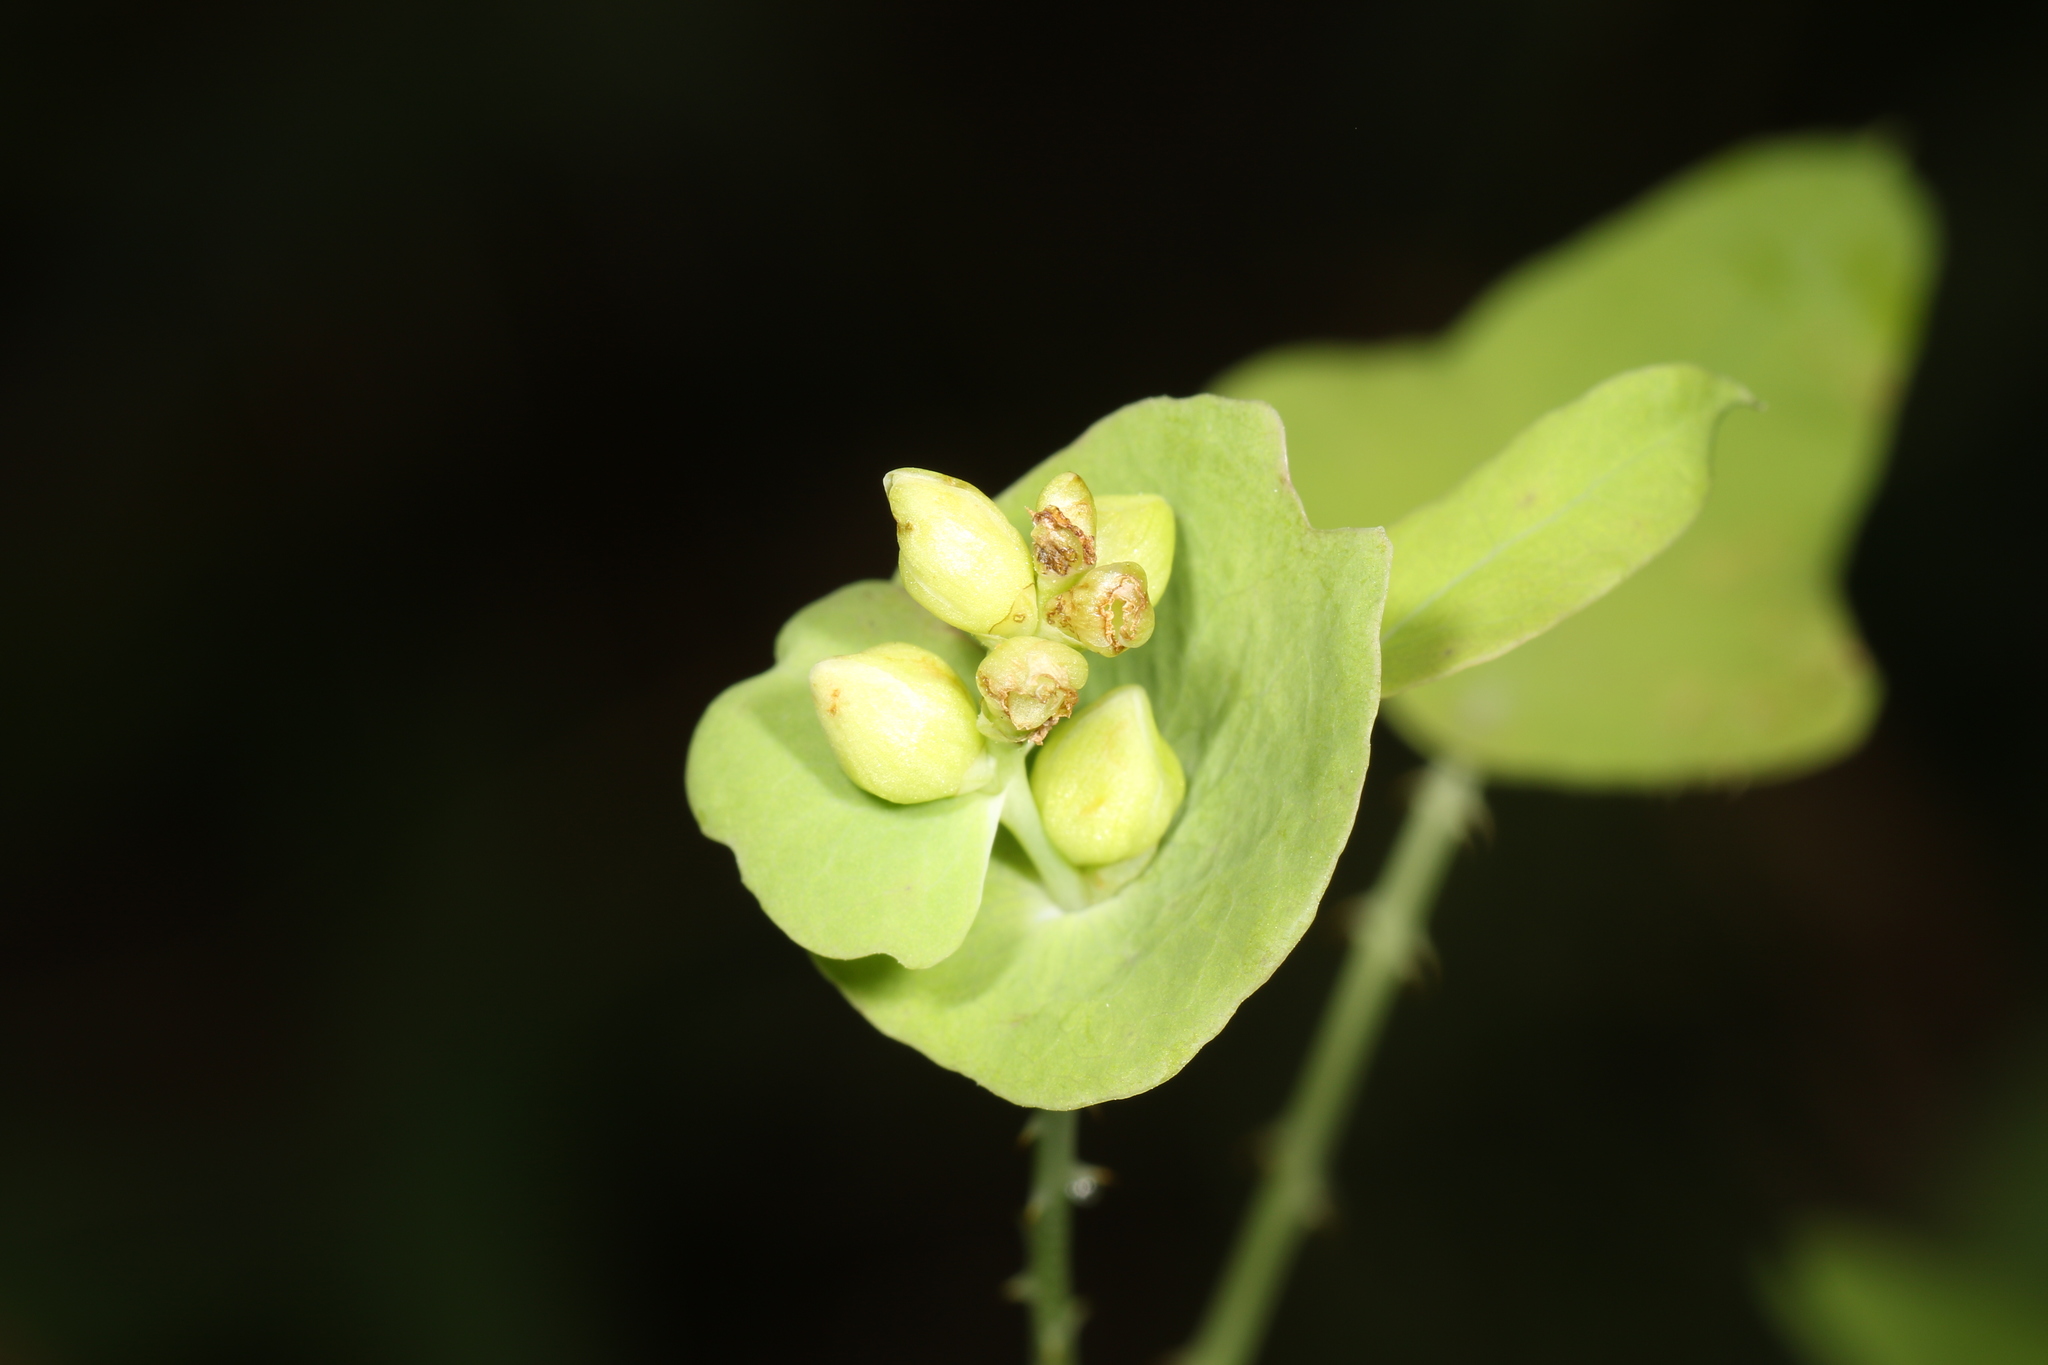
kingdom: Plantae
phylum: Tracheophyta
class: Magnoliopsida
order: Caryophyllales
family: Polygonaceae
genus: Persicaria
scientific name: Persicaria perfoliata
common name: Asiatic tearthumb
